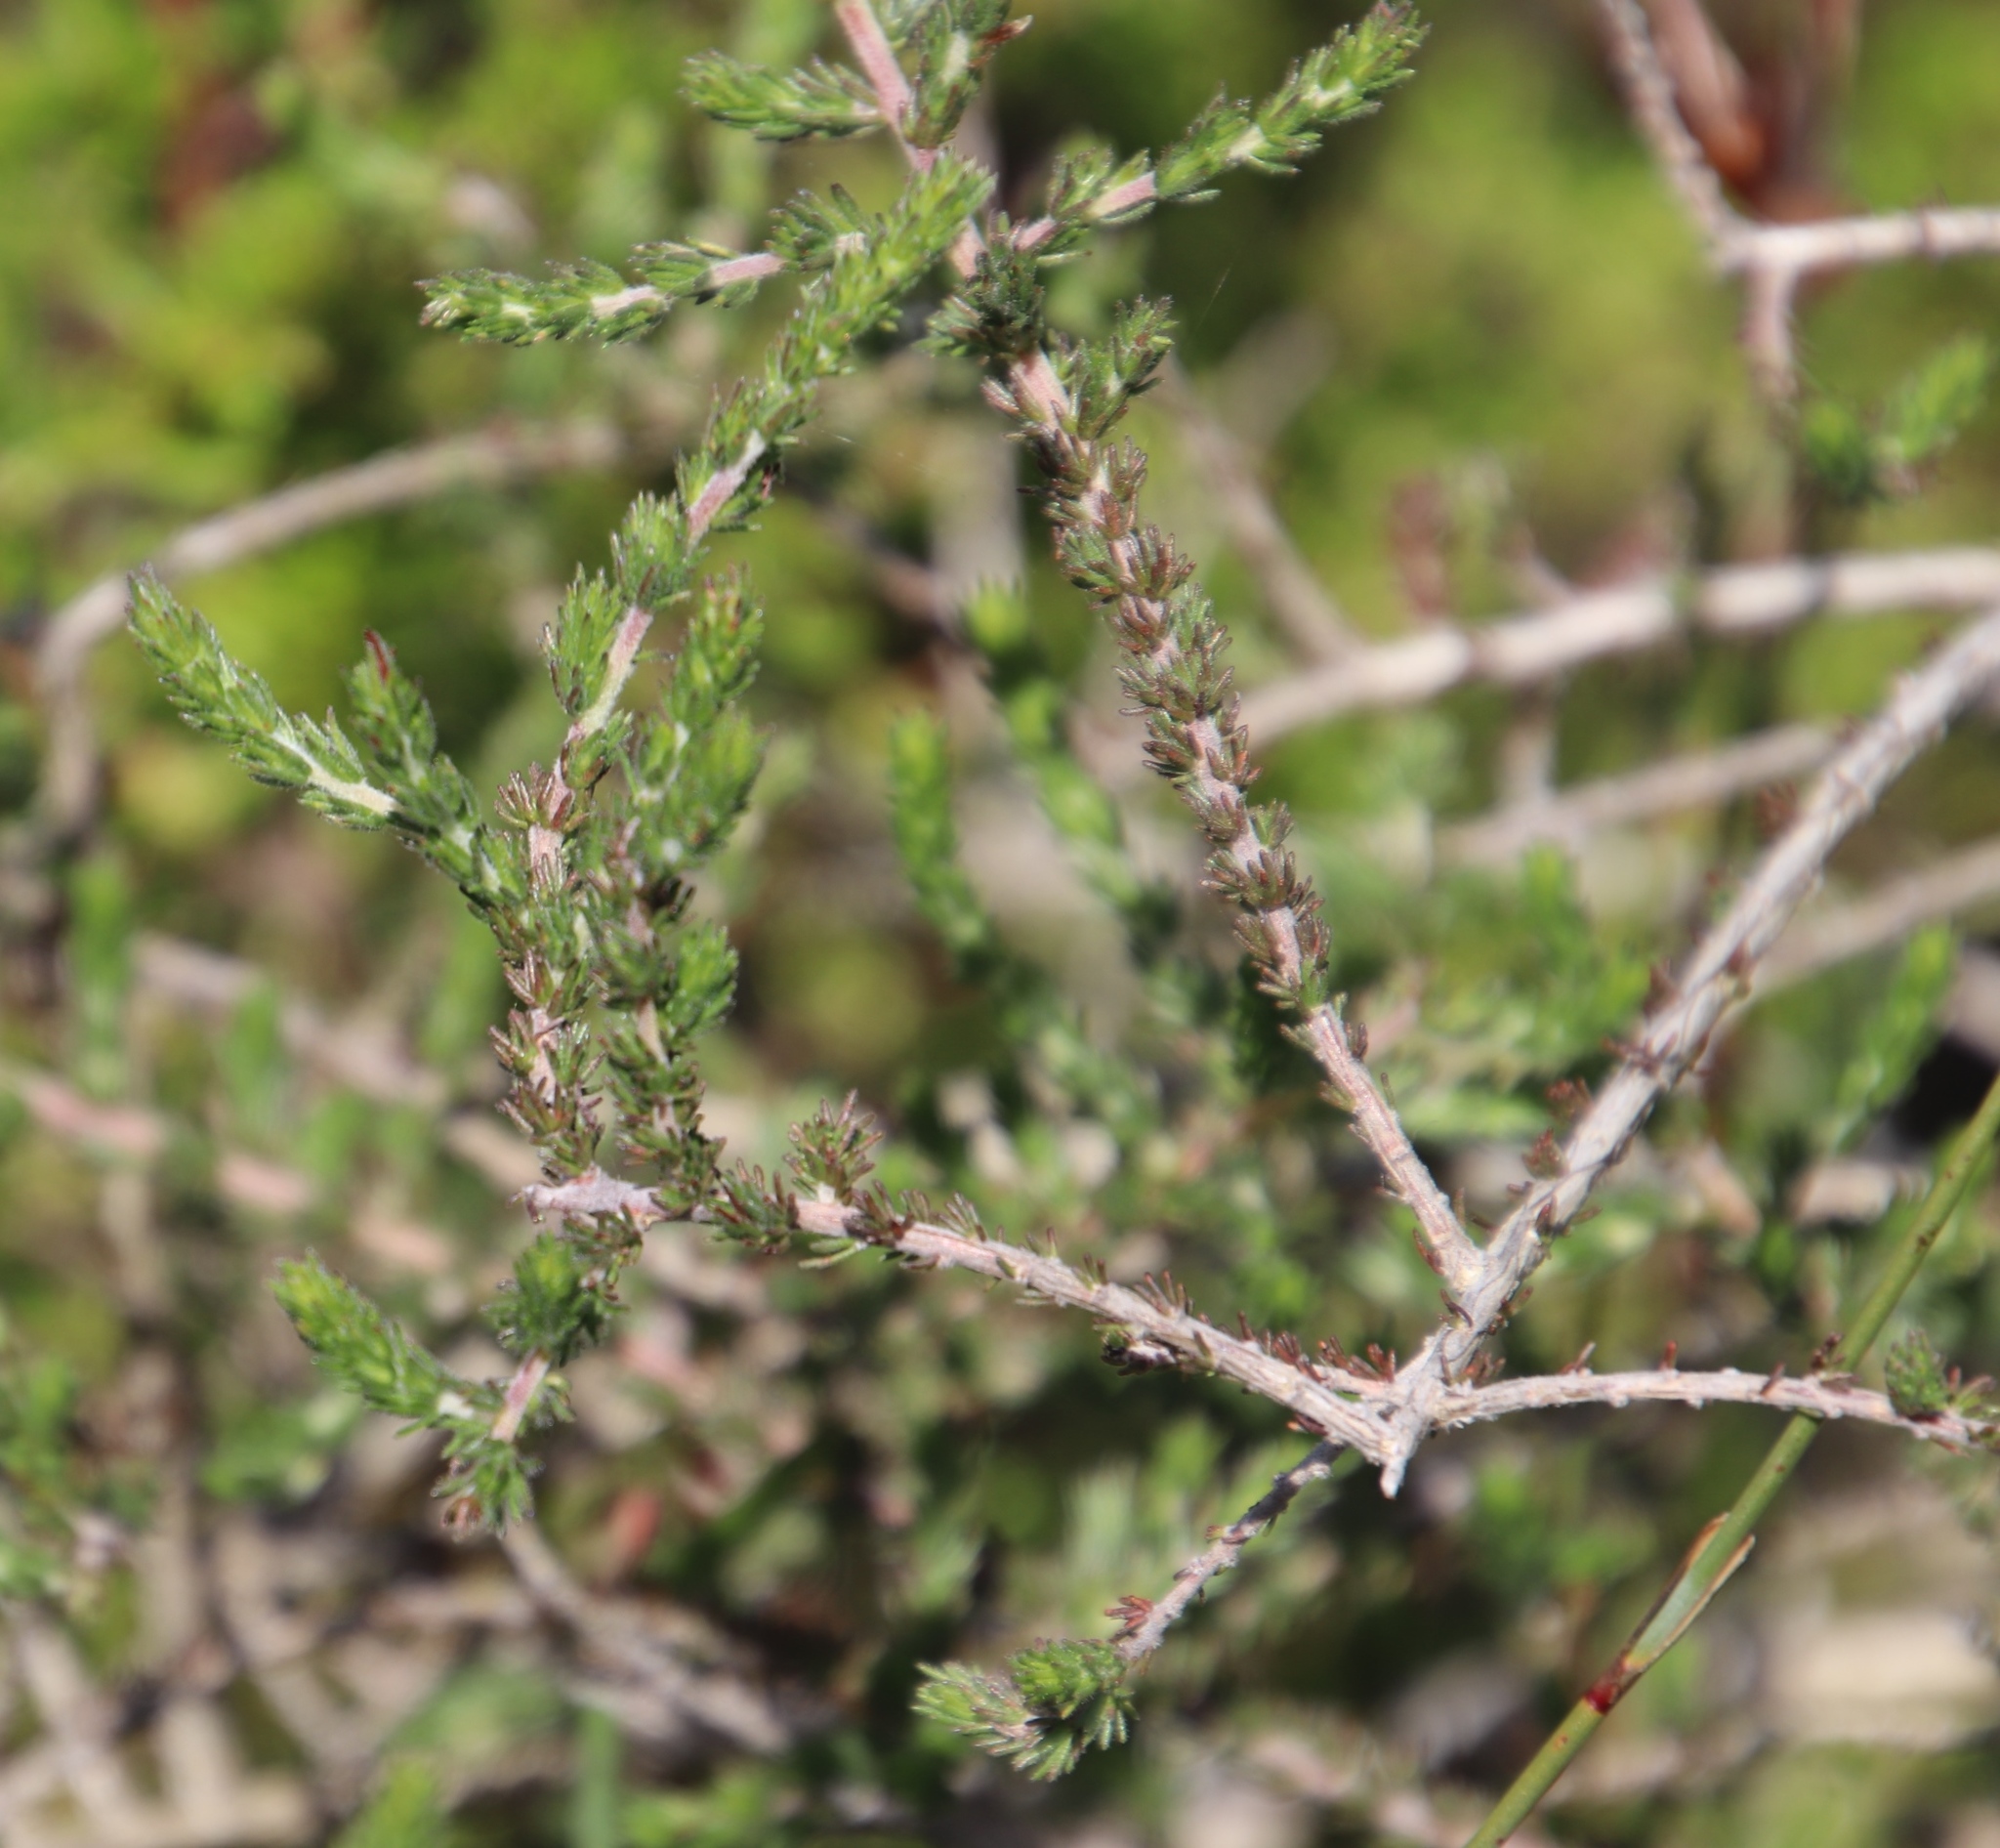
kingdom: Plantae
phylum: Tracheophyta
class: Magnoliopsida
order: Fabales
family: Fabaceae
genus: Aspalathus
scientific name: Aspalathus hispida
